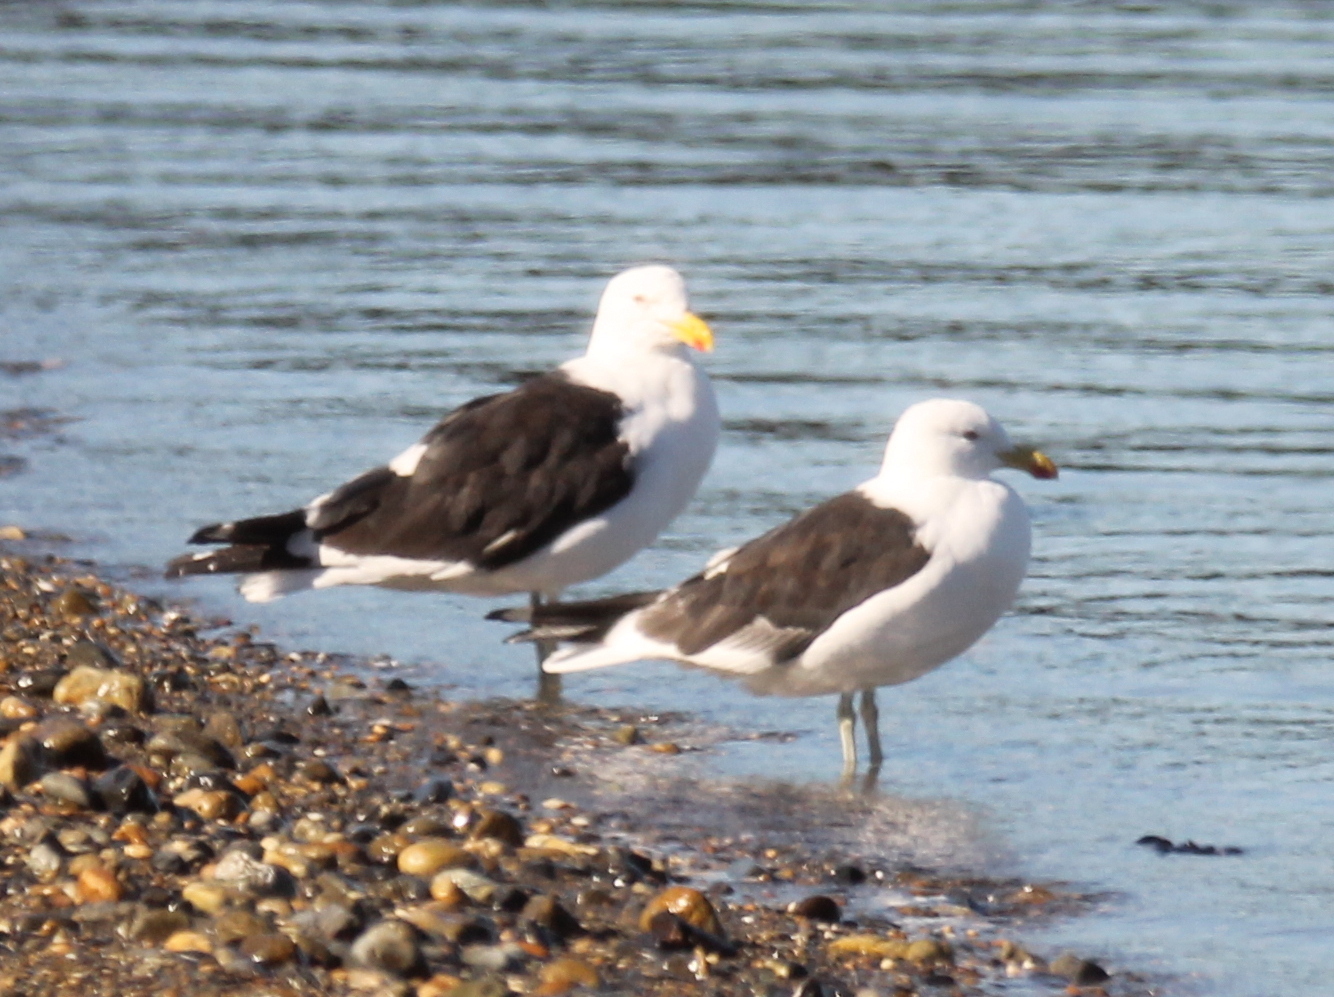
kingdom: Animalia
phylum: Chordata
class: Aves
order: Charadriiformes
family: Laridae
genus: Larus
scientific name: Larus dominicanus
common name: Kelp gull
